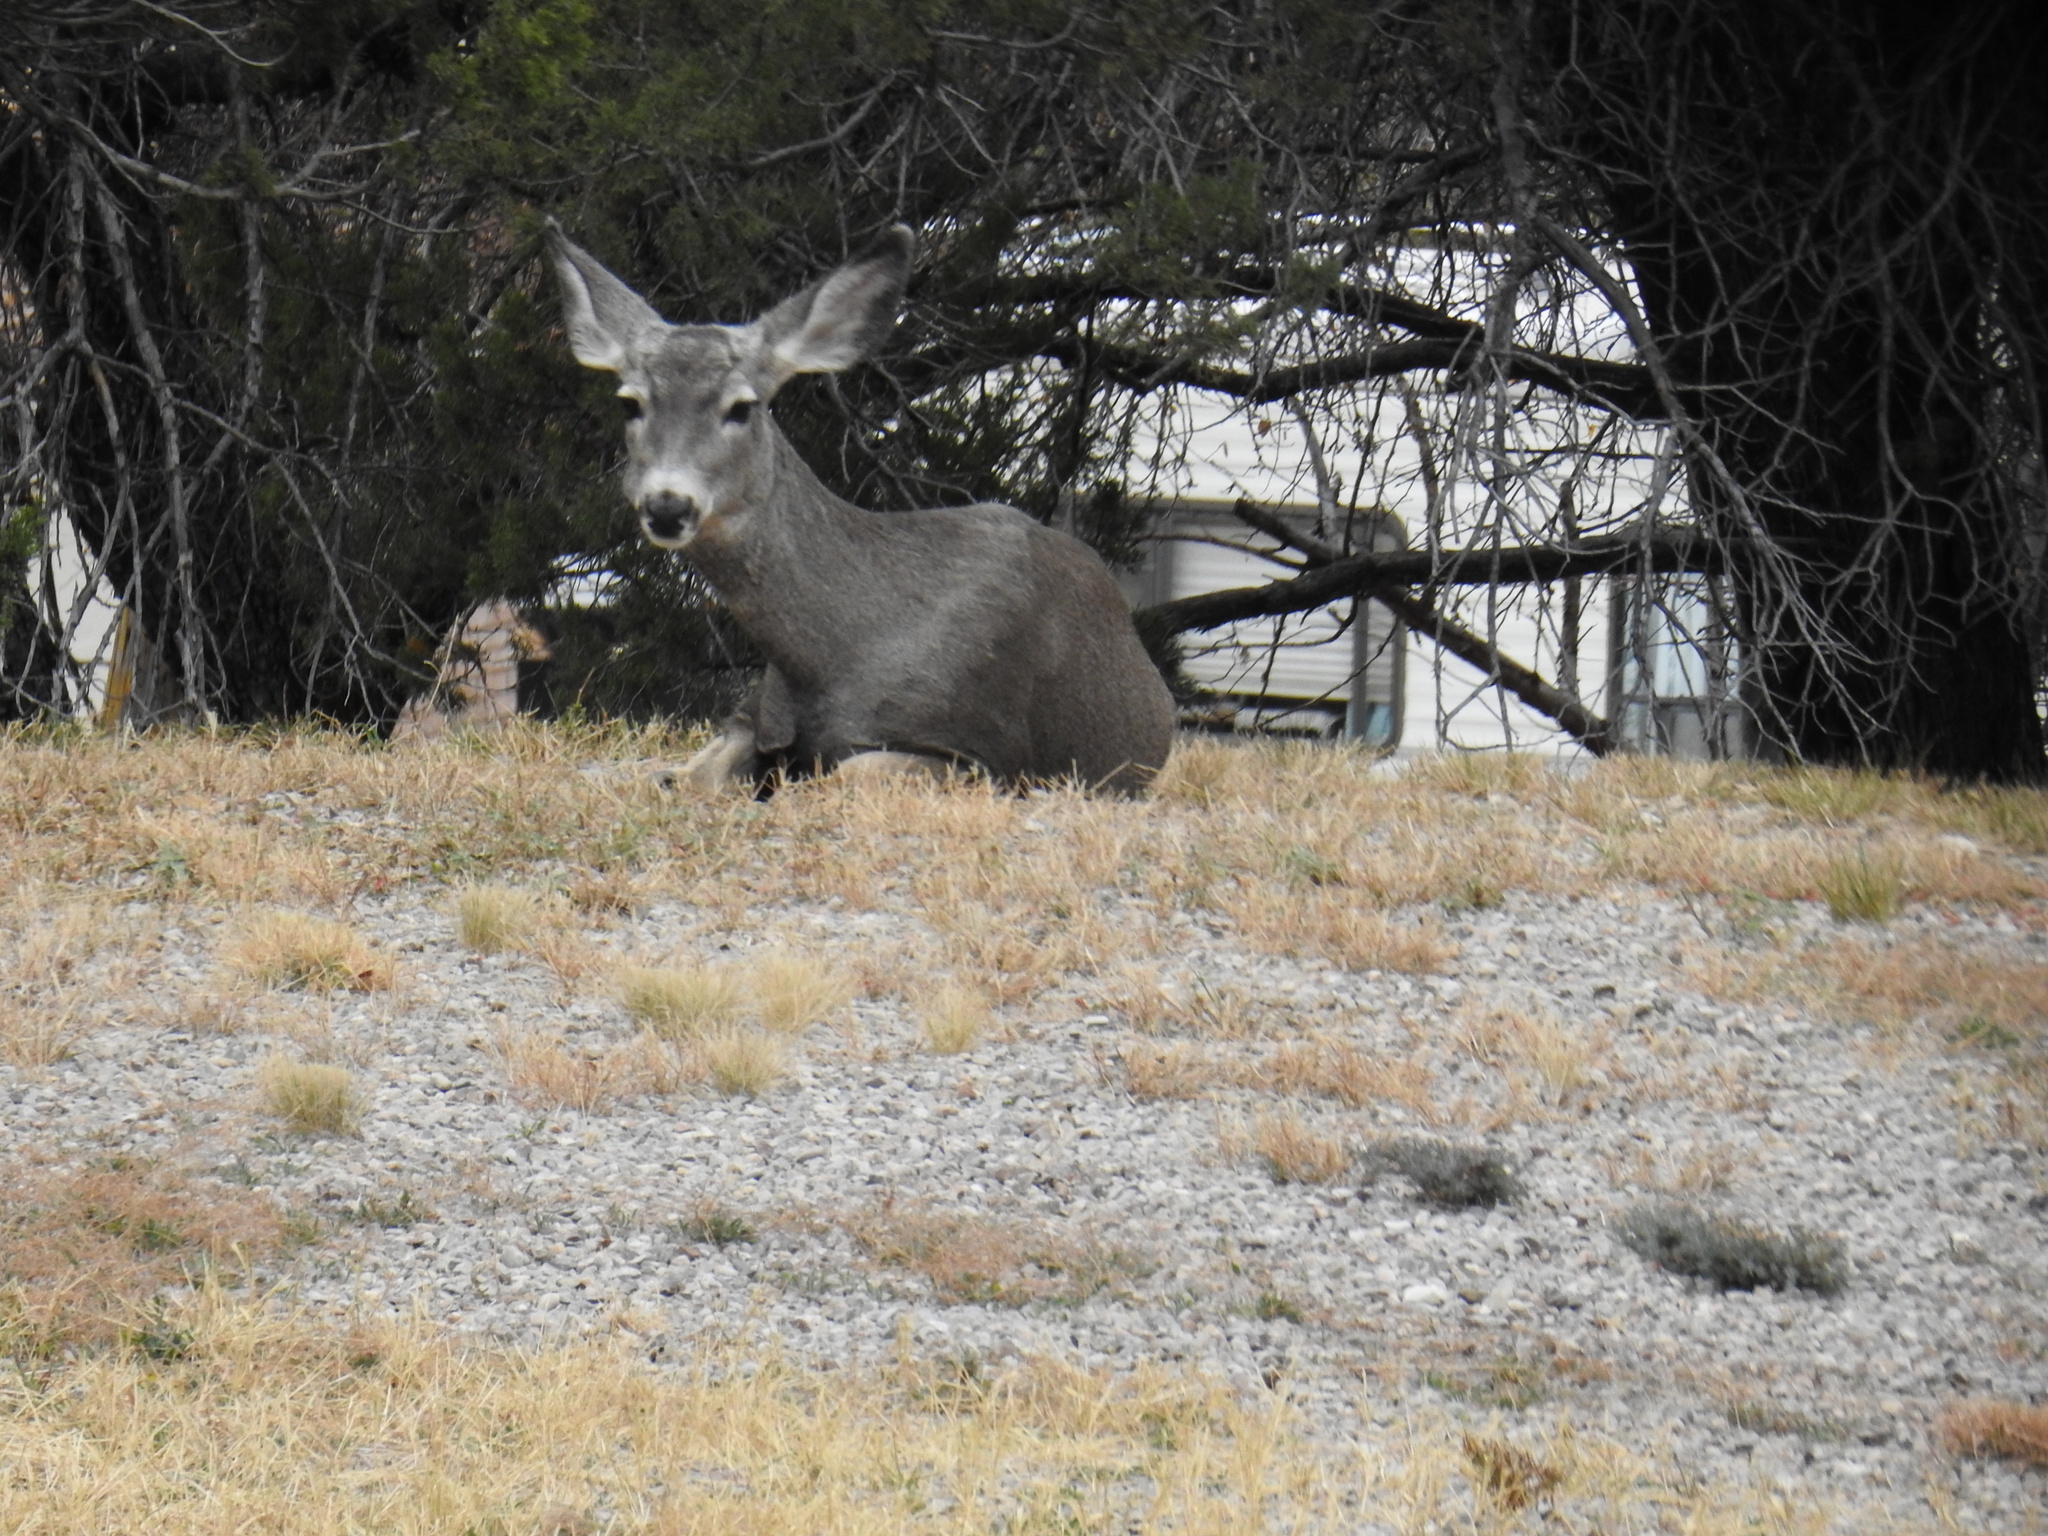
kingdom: Animalia
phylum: Chordata
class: Mammalia
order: Artiodactyla
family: Cervidae
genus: Odocoileus
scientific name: Odocoileus hemionus
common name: Mule deer
